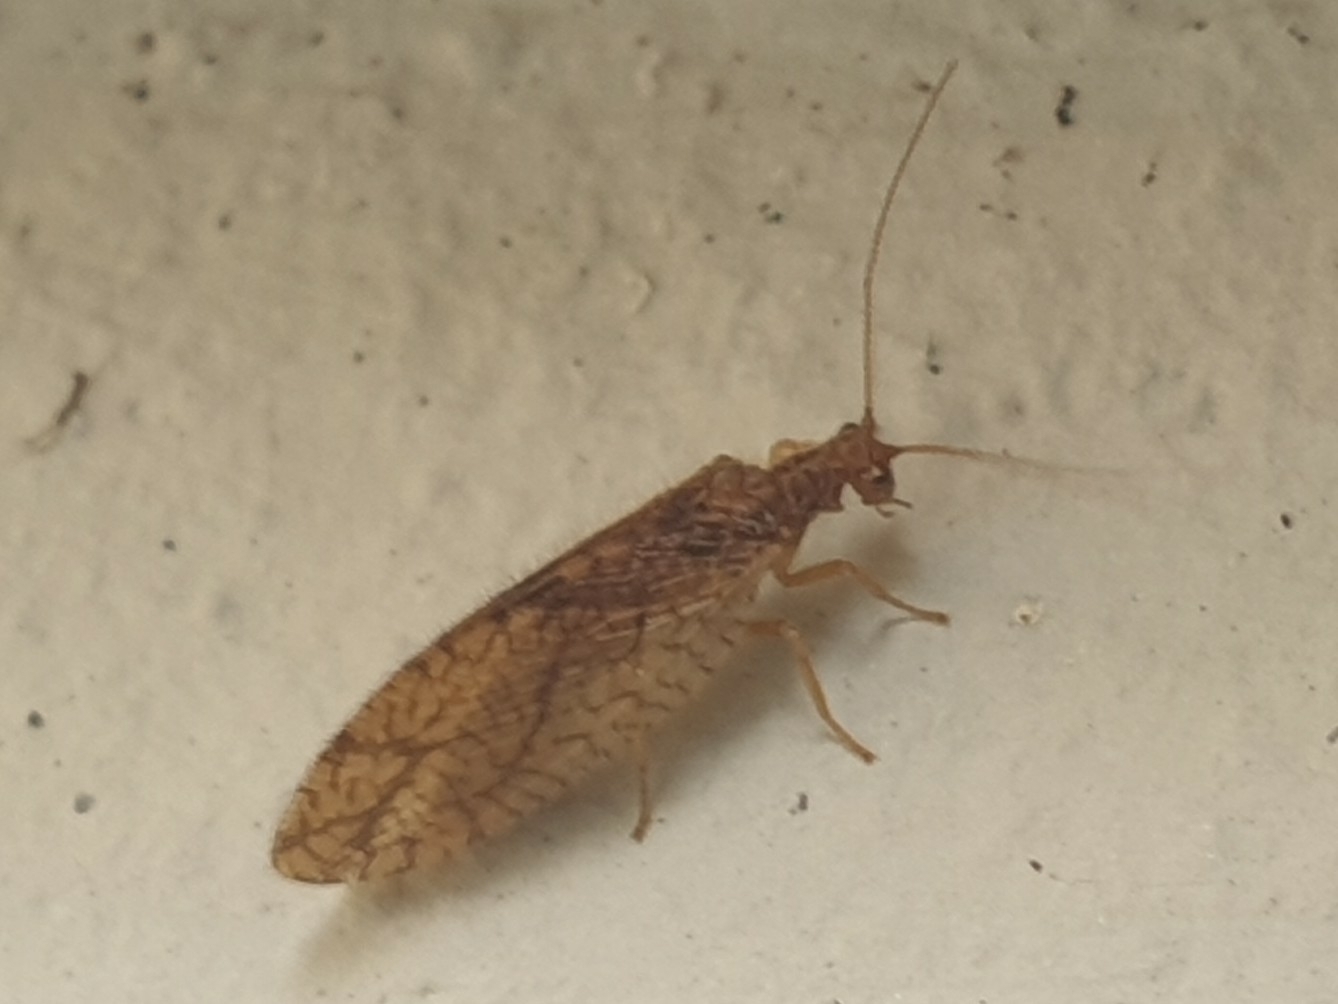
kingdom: Animalia
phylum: Arthropoda
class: Insecta
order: Neuroptera
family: Hemerobiidae
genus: Micromus
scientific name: Micromus angulatus
